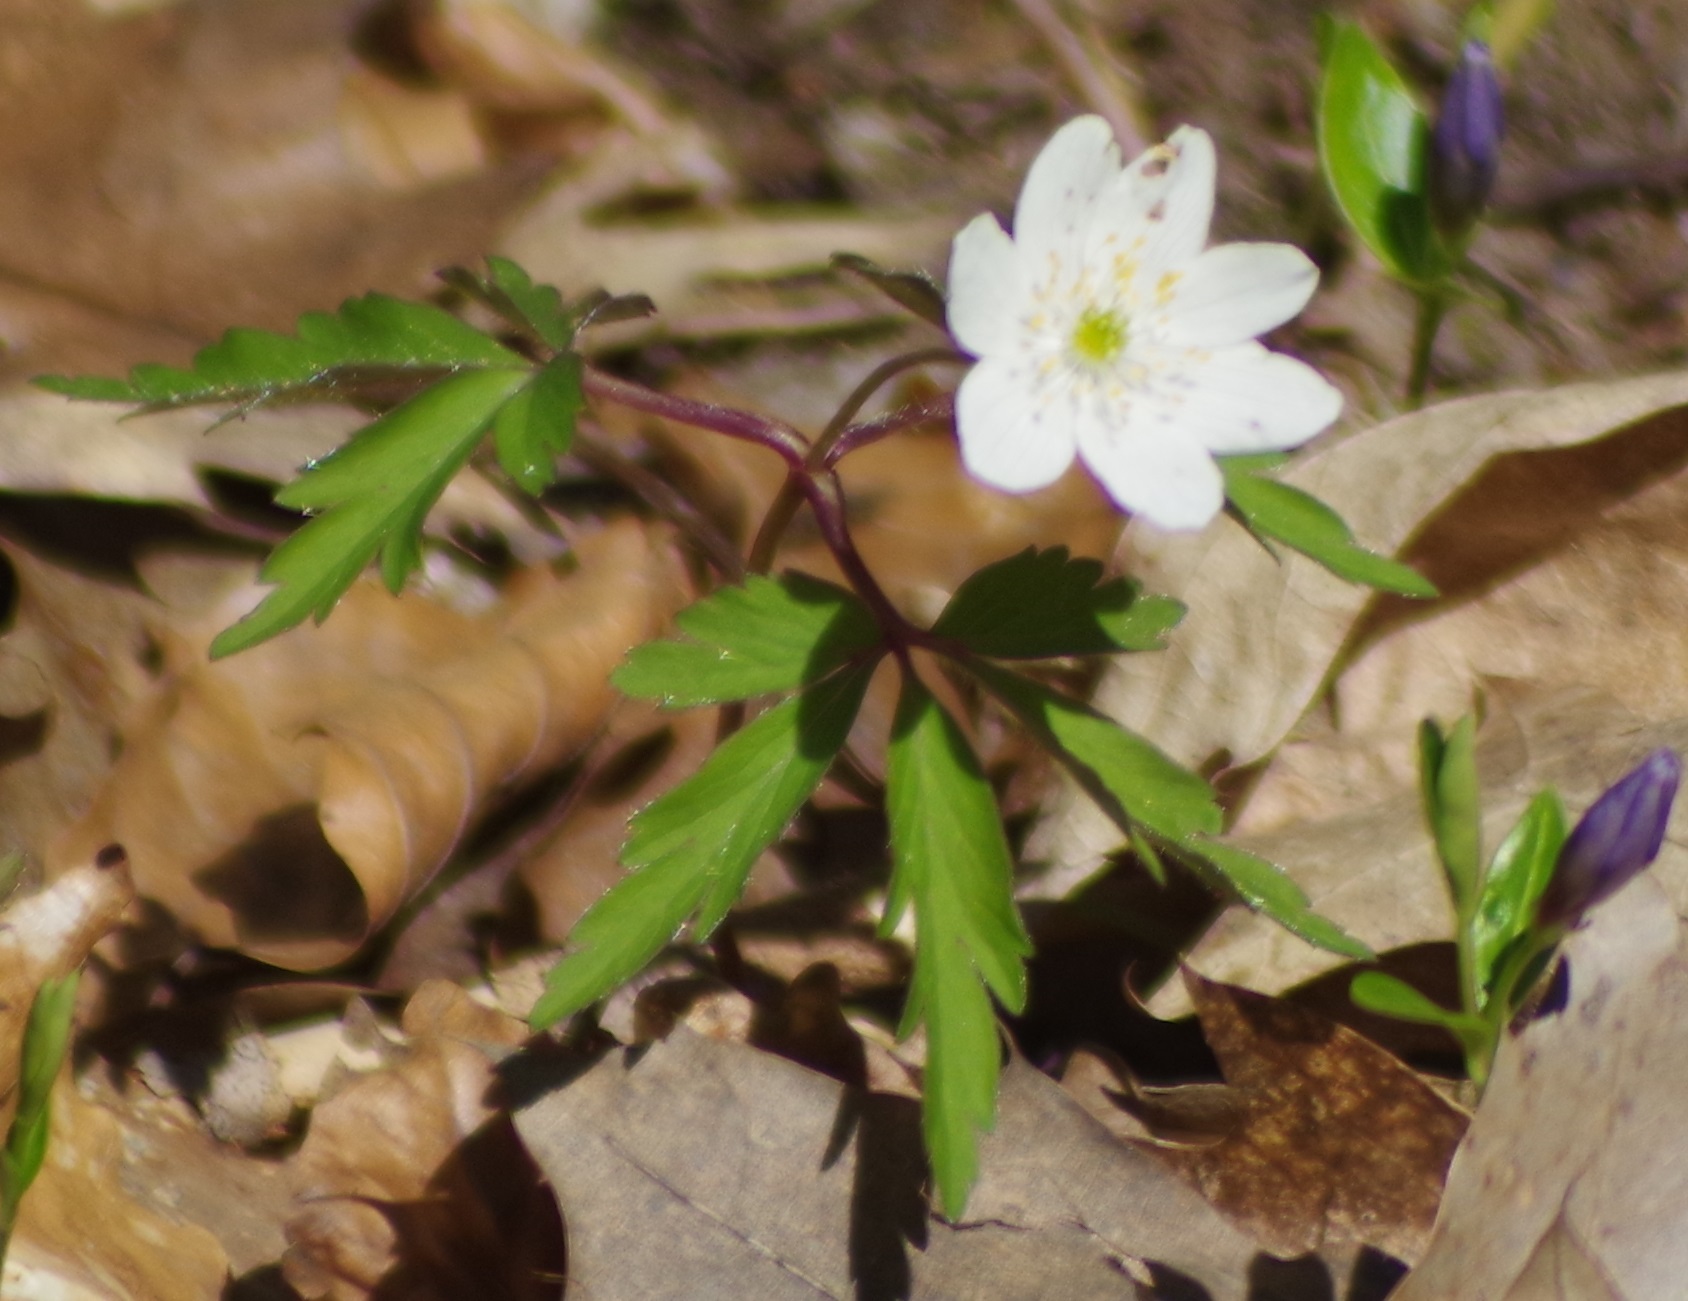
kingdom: Plantae
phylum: Tracheophyta
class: Magnoliopsida
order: Ranunculales
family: Ranunculaceae
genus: Anemone
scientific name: Anemone nemorosa
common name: Wood anemone
